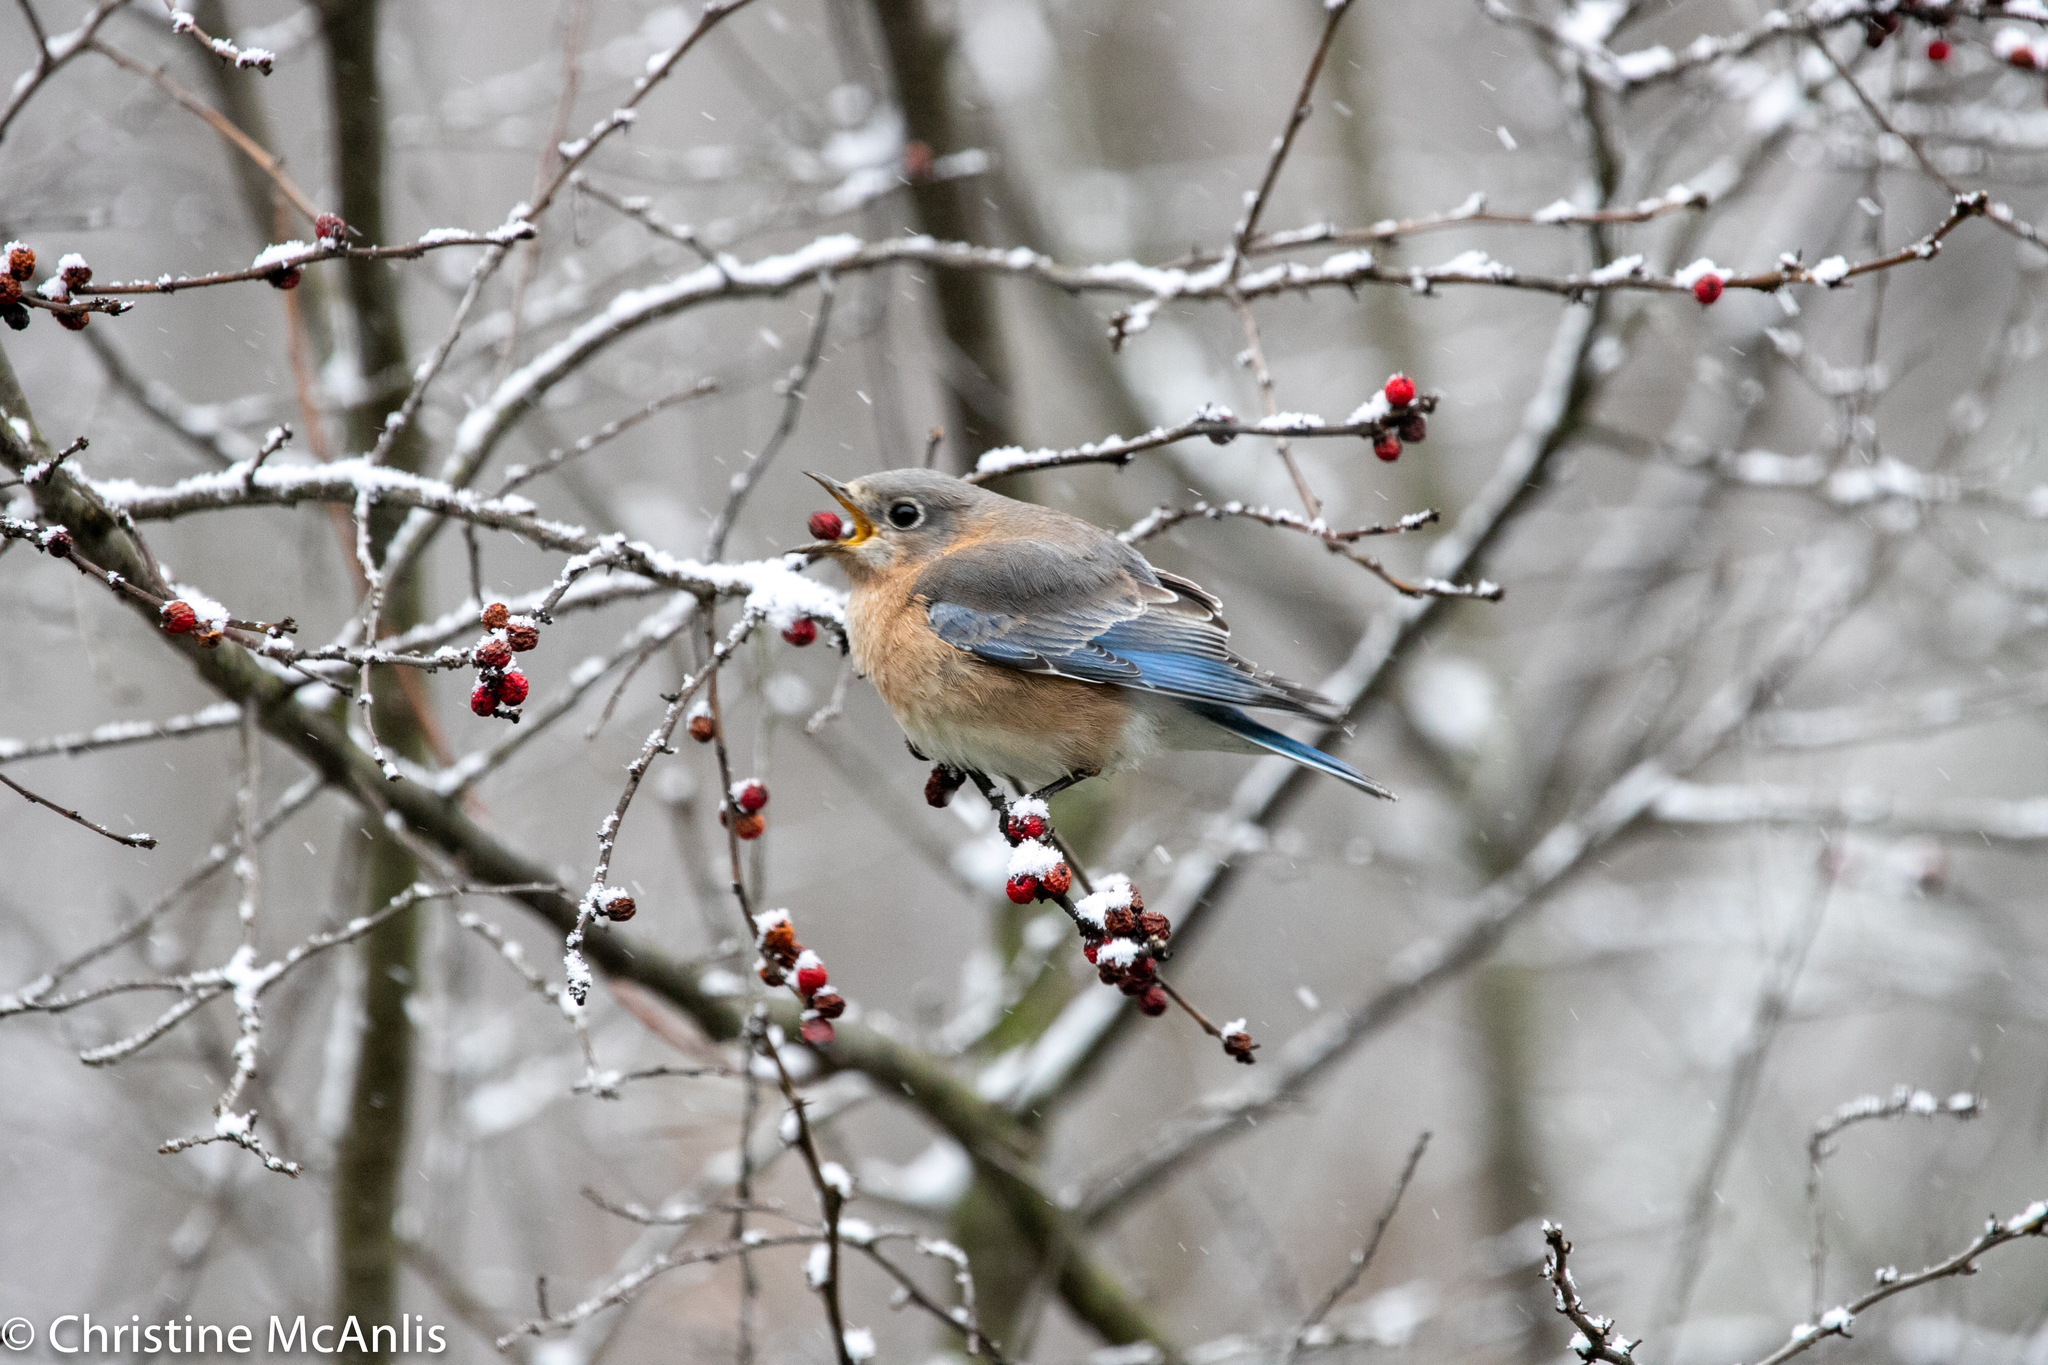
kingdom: Animalia
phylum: Chordata
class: Aves
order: Passeriformes
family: Turdidae
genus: Sialia
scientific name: Sialia sialis
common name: Eastern bluebird
